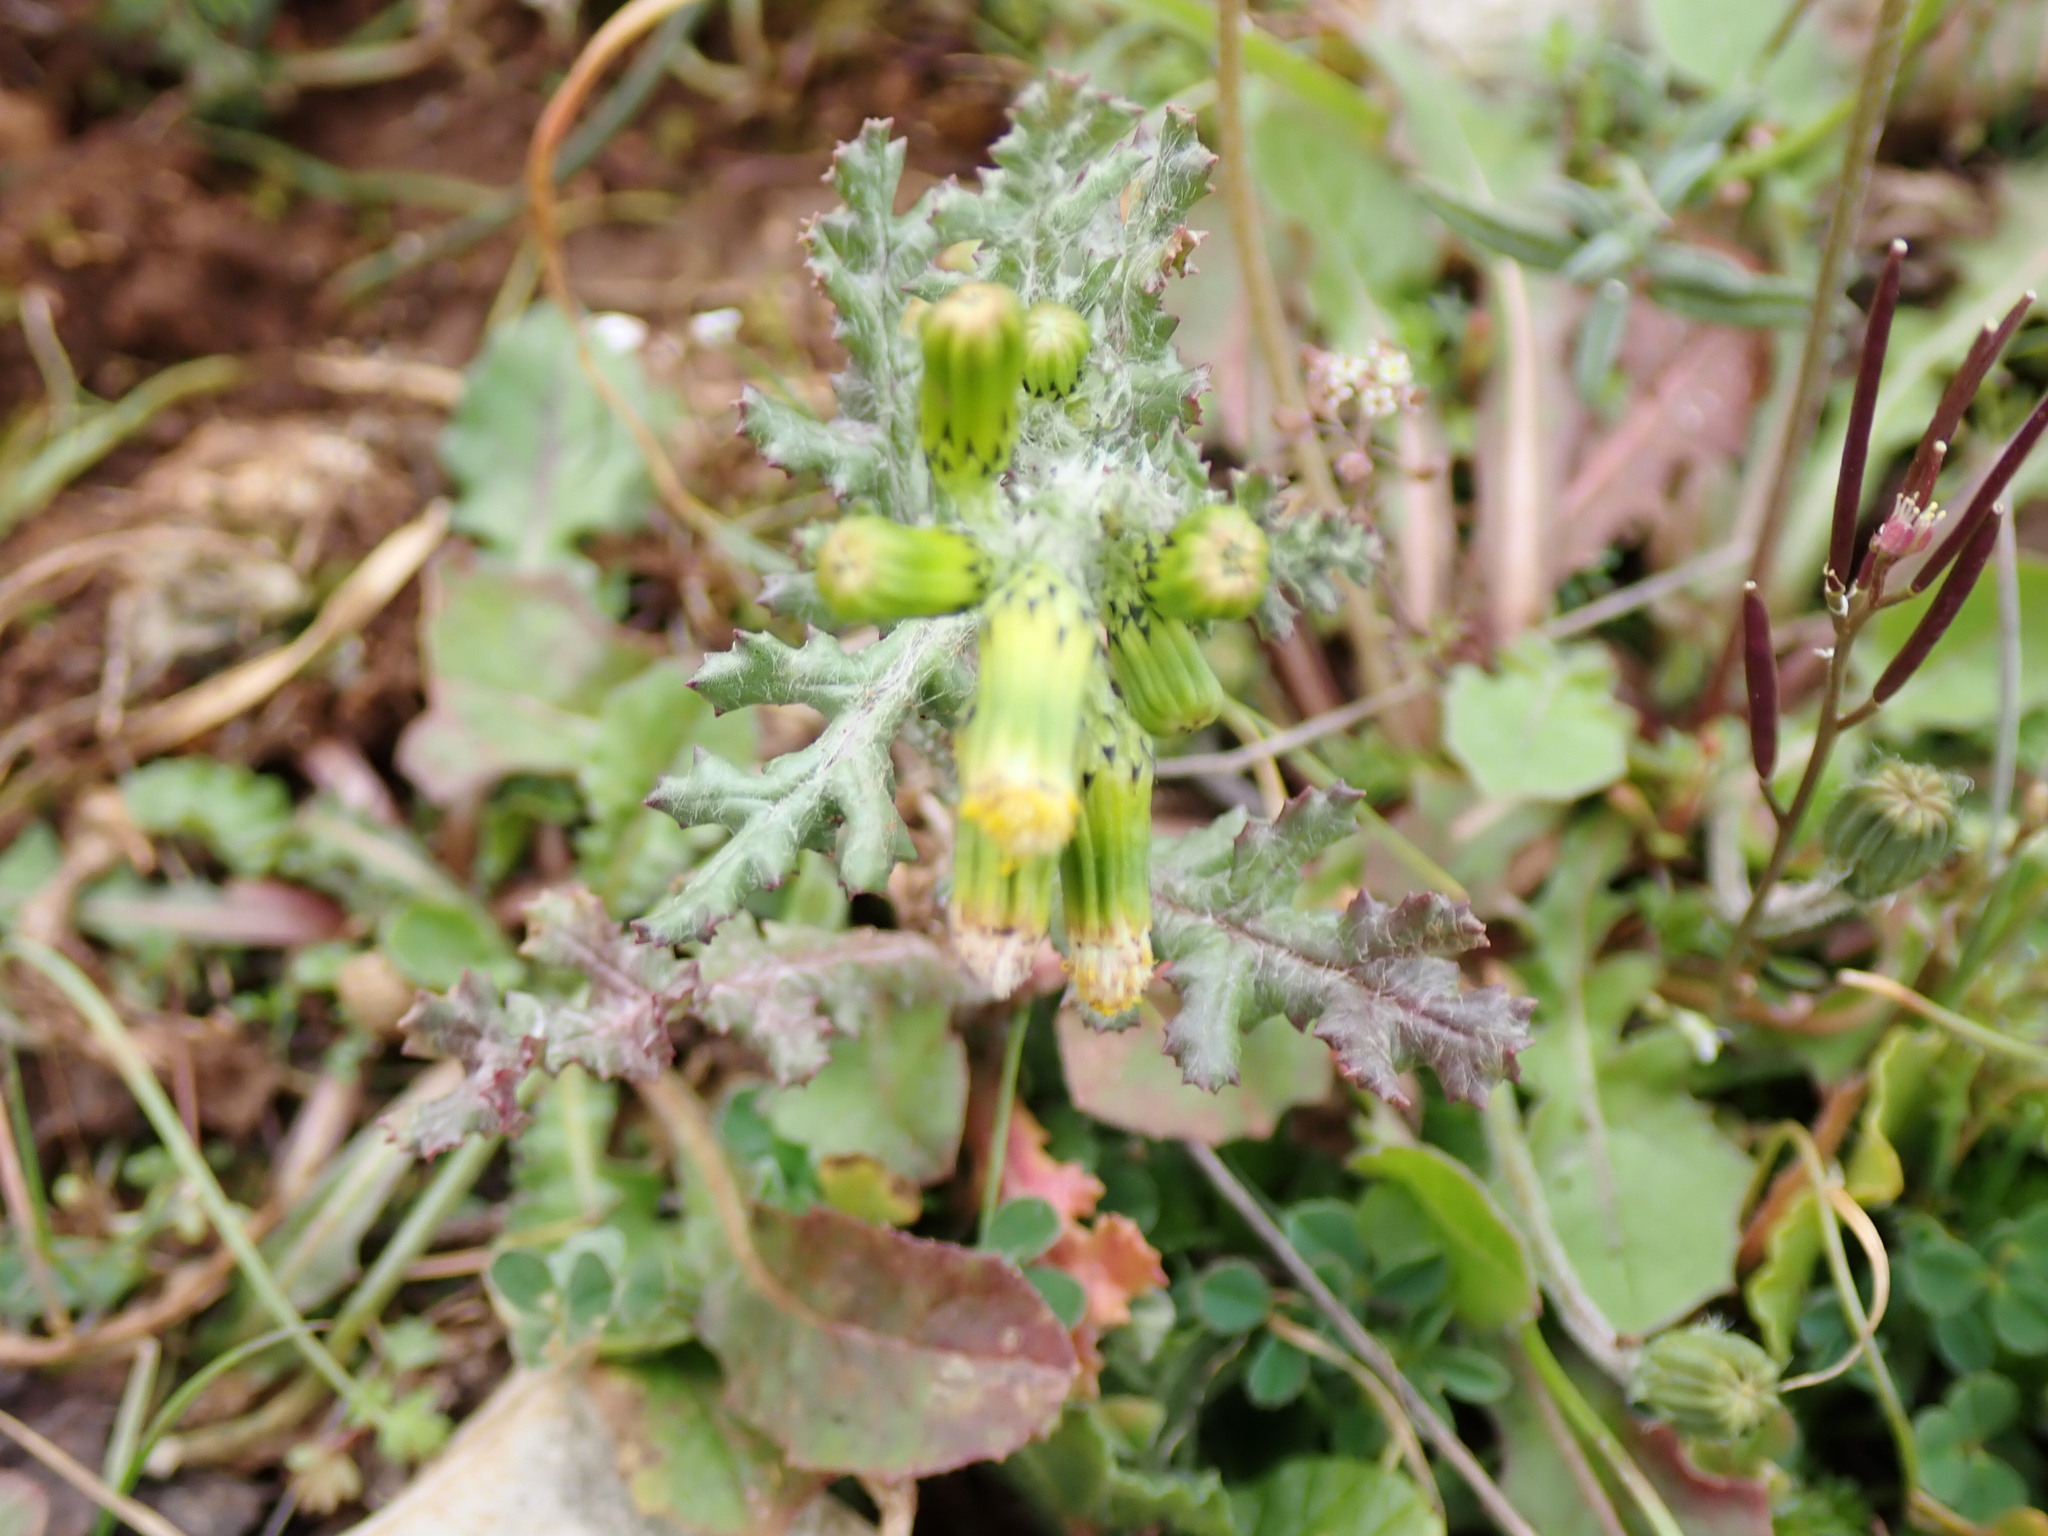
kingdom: Plantae
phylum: Tracheophyta
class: Magnoliopsida
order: Asterales
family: Asteraceae
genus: Senecio
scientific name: Senecio vulgaris
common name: Old-man-in-the-spring
